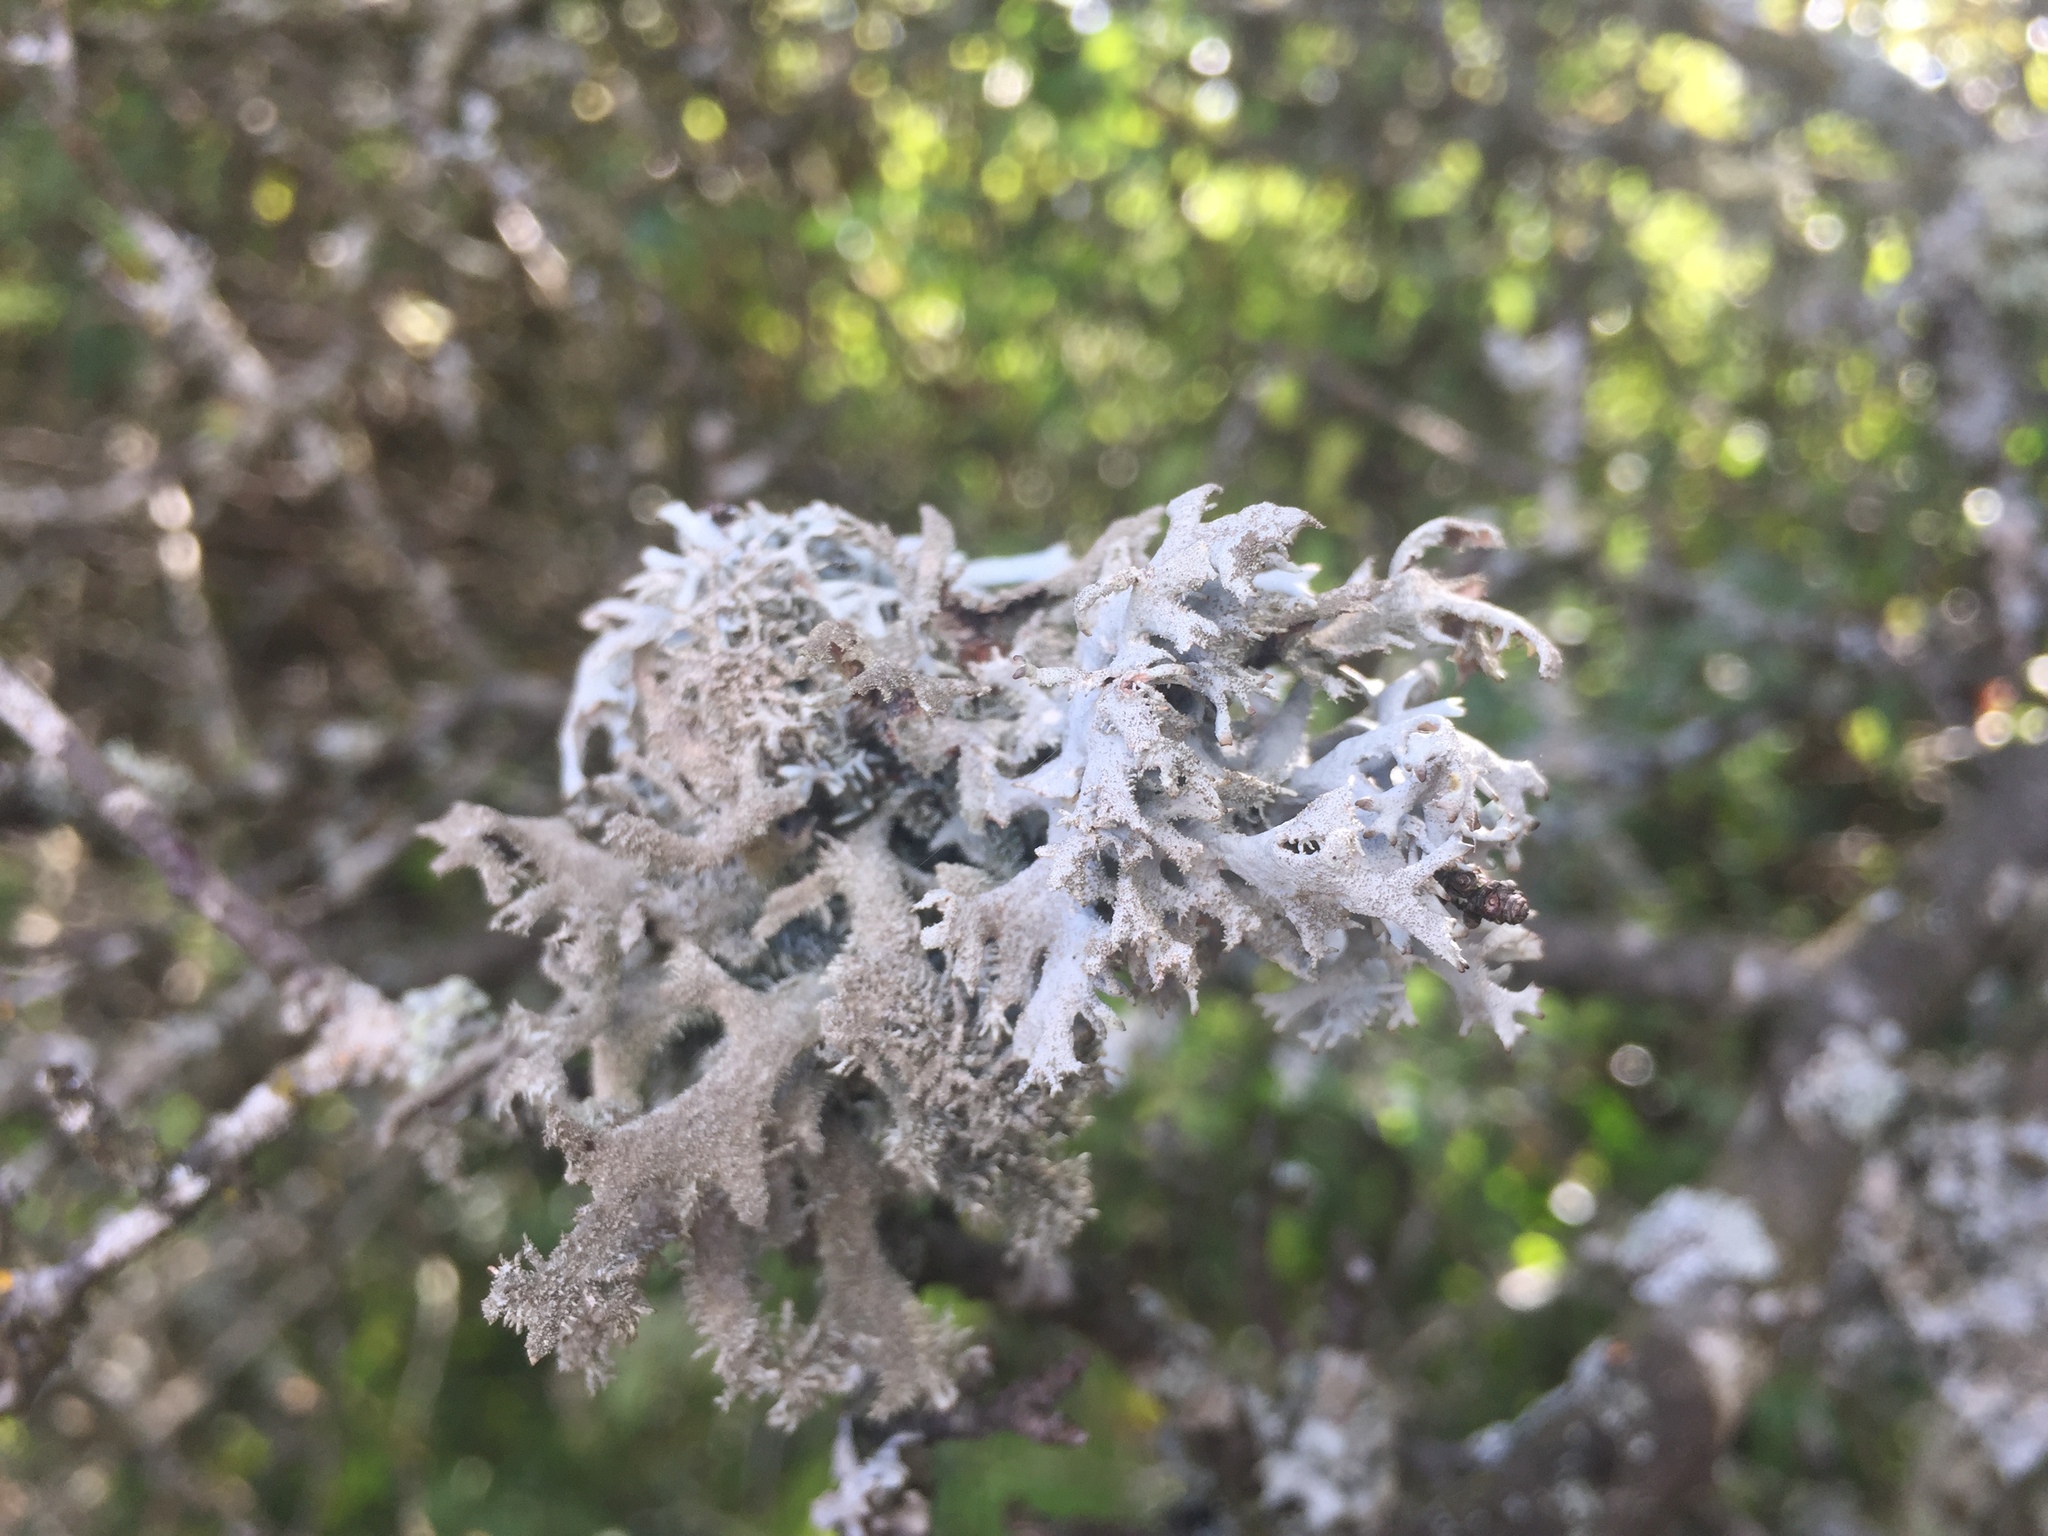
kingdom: Fungi
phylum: Ascomycota
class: Lecanoromycetes
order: Lecanorales
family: Parmeliaceae
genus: Pseudevernia
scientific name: Pseudevernia furfuracea
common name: Tree moss
